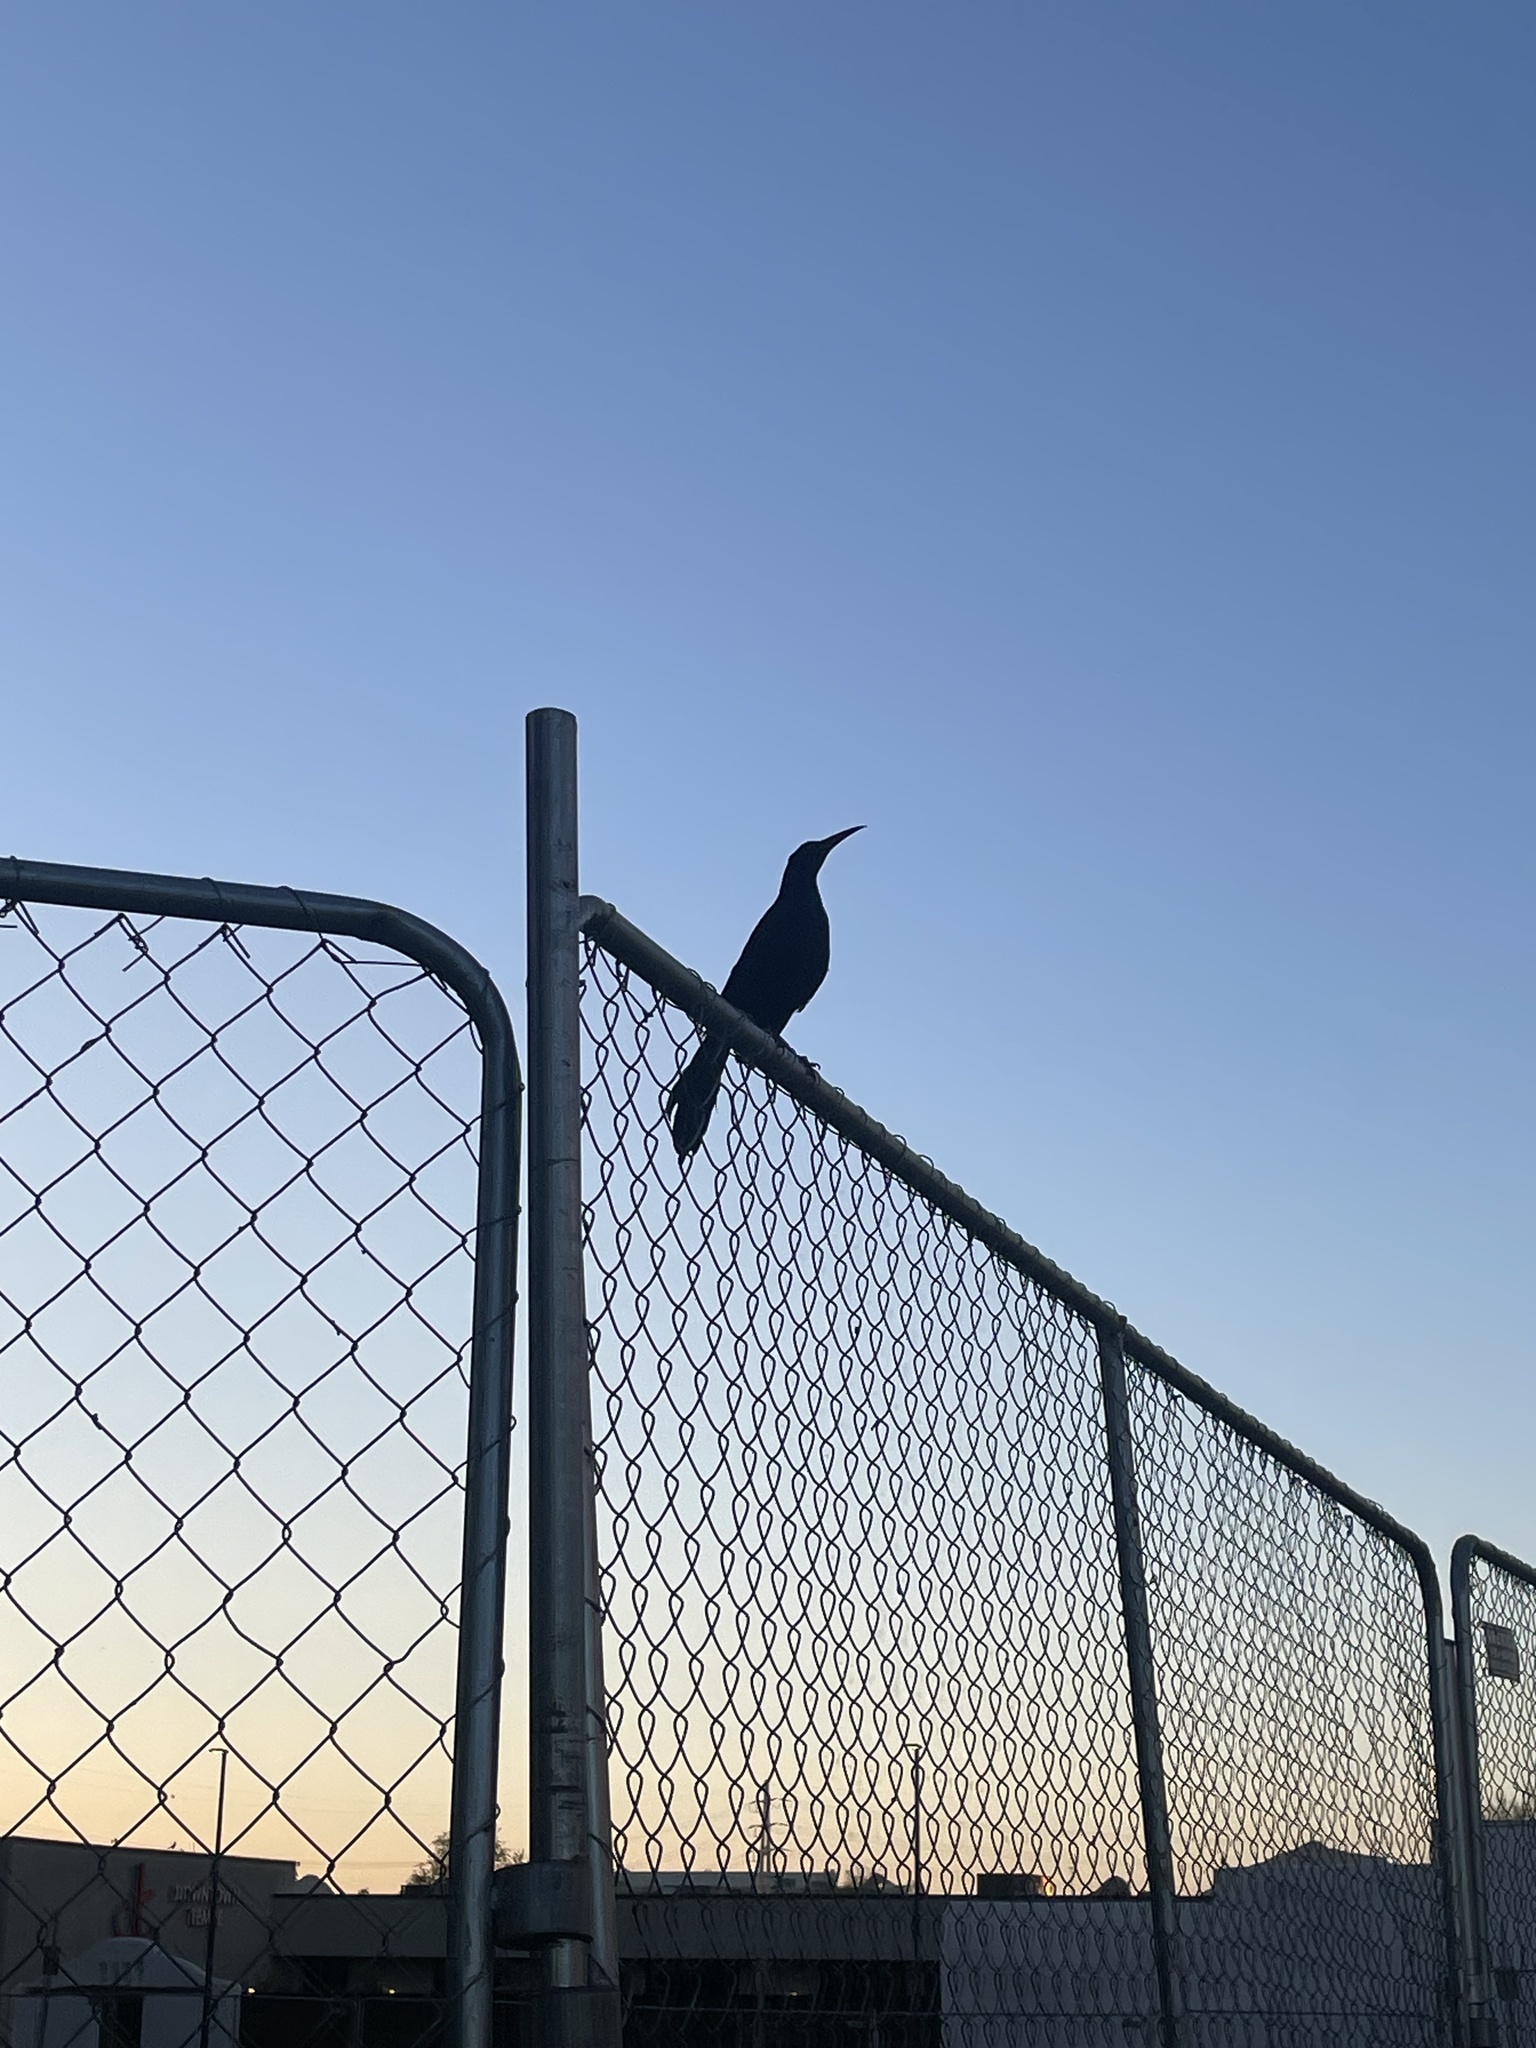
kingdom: Animalia
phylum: Chordata
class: Aves
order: Passeriformes
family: Icteridae
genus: Quiscalus
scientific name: Quiscalus mexicanus
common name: Great-tailed grackle
